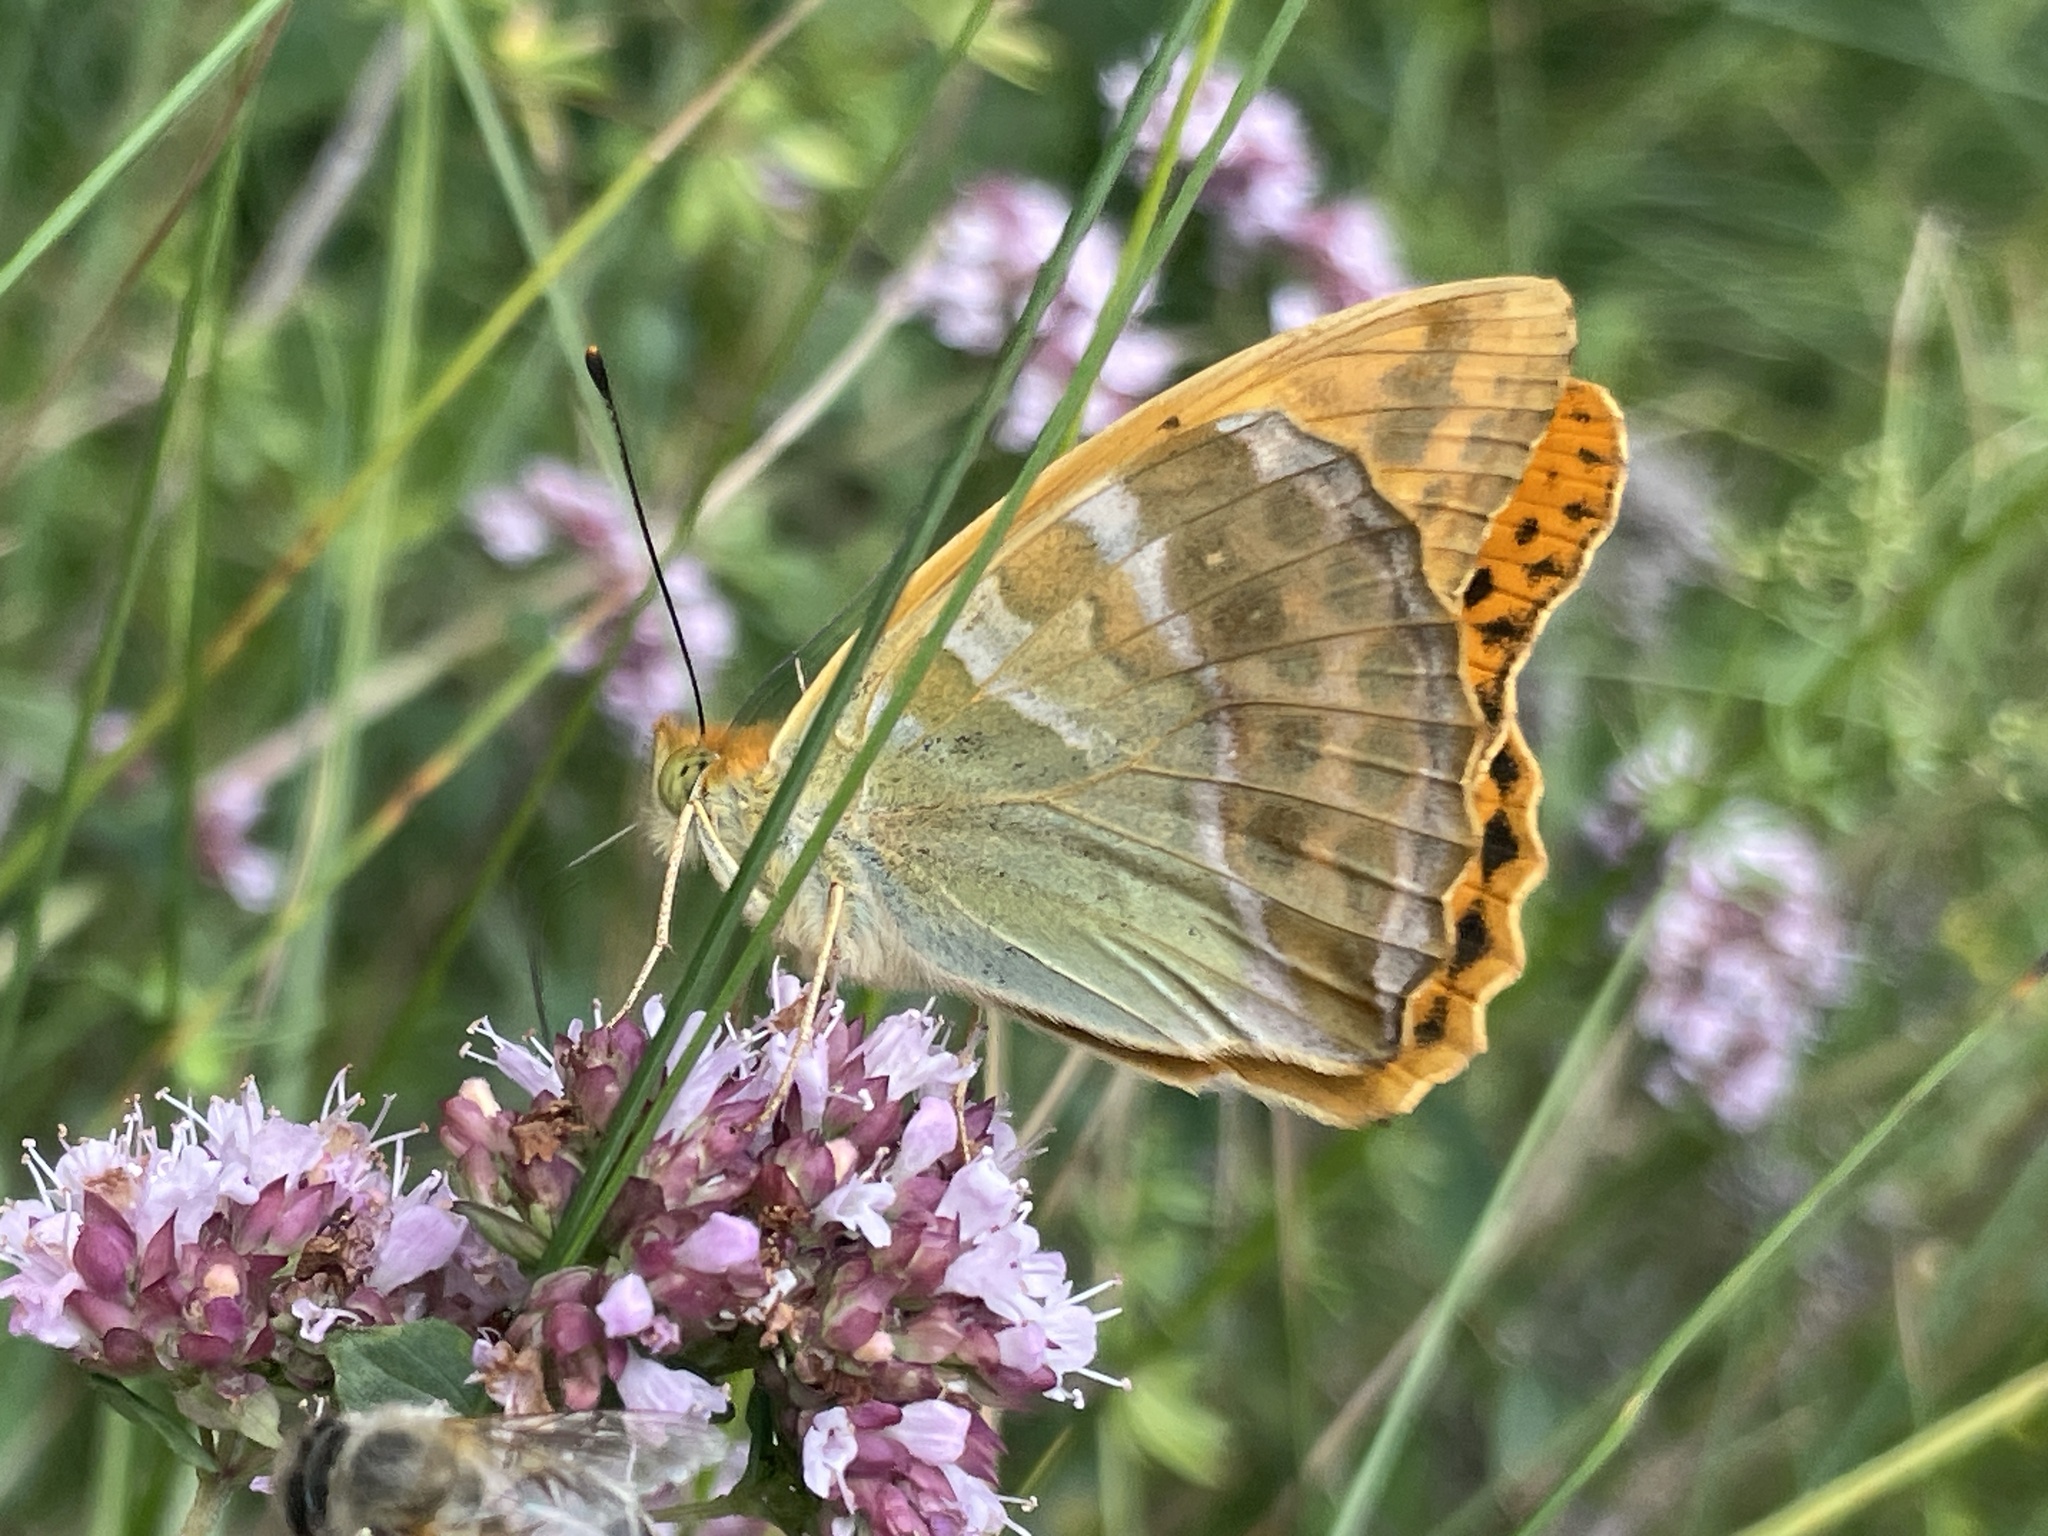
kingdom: Animalia
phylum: Arthropoda
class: Insecta
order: Lepidoptera
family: Nymphalidae
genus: Argynnis
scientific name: Argynnis paphia
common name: Silver-washed fritillary
